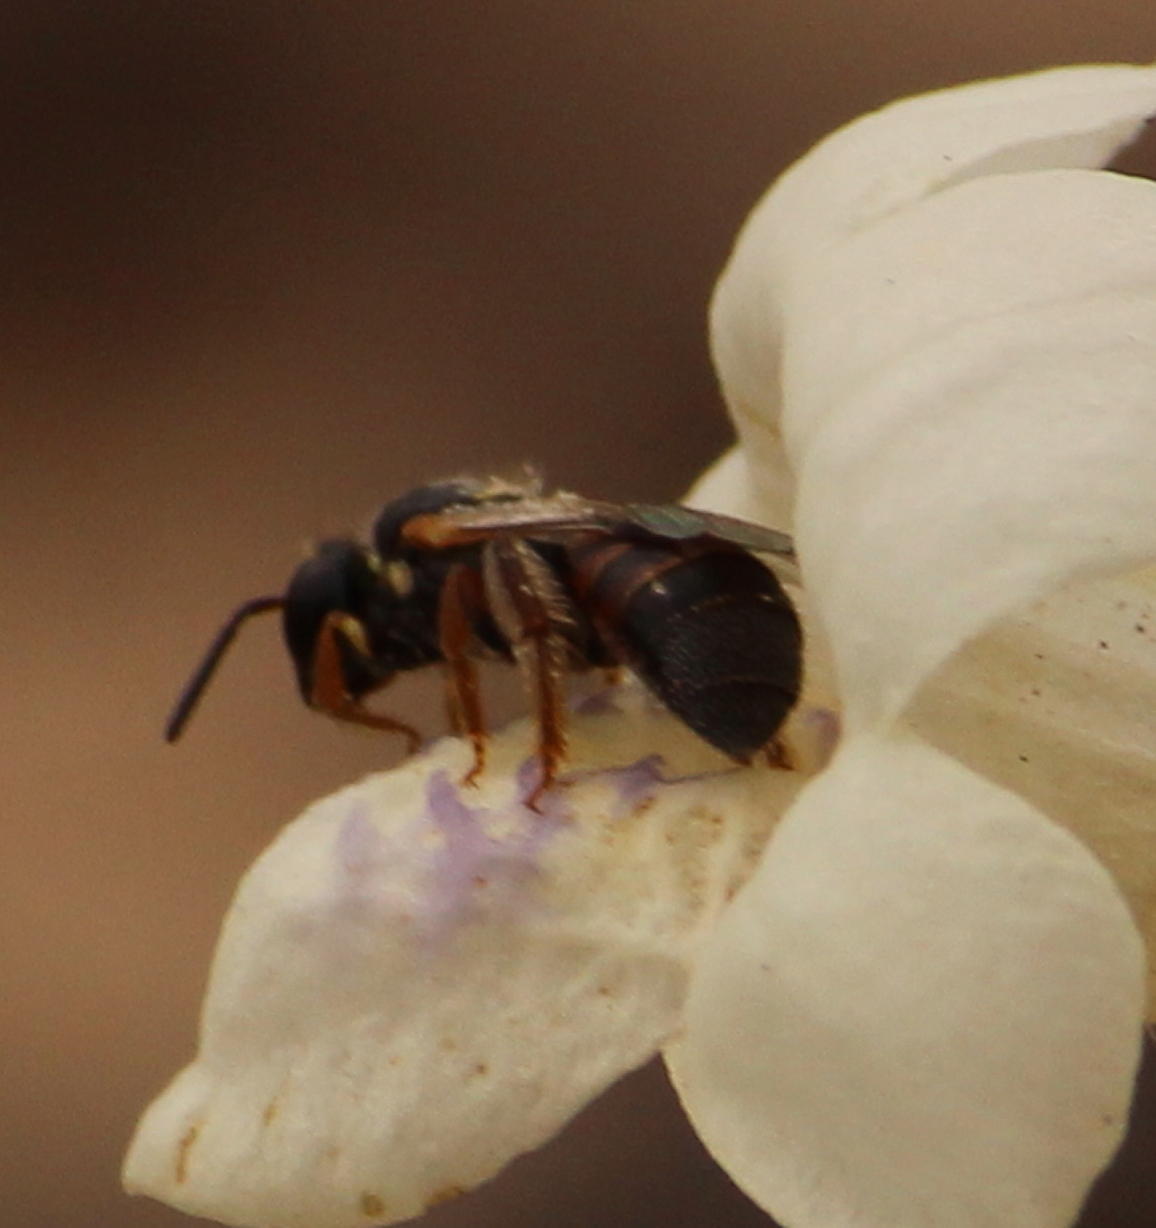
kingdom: Animalia
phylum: Arthropoda
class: Insecta
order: Hymenoptera
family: Apidae
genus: Apidae
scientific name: Apidae
